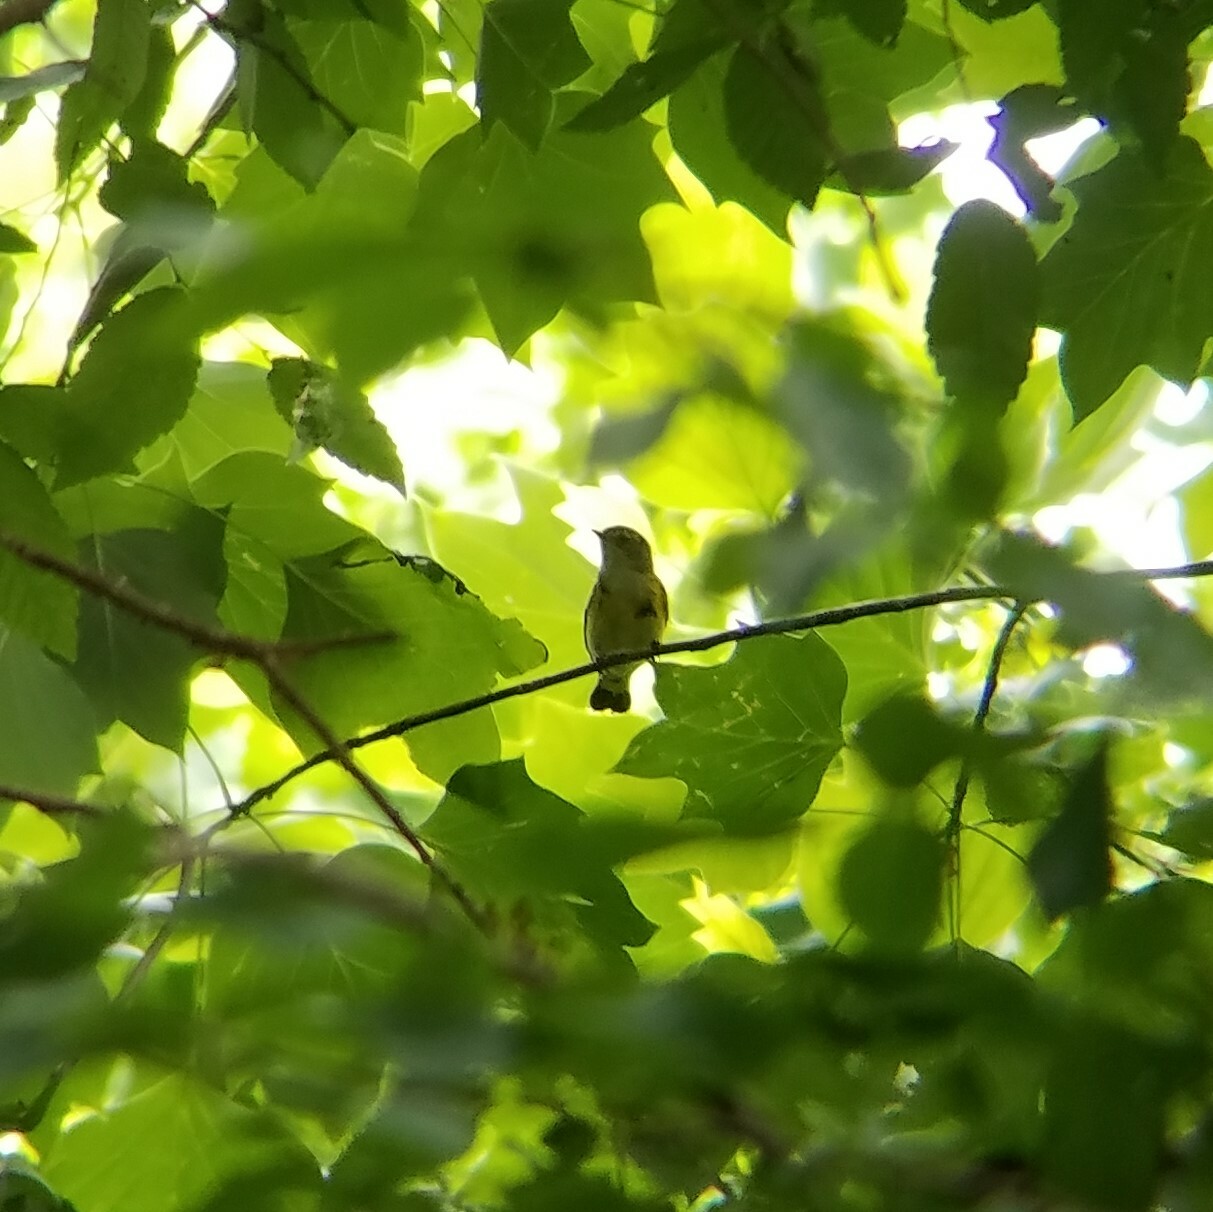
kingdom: Animalia
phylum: Chordata
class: Aves
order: Passeriformes
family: Parulidae
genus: Setophaga
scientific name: Setophaga ruticilla
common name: American redstart
